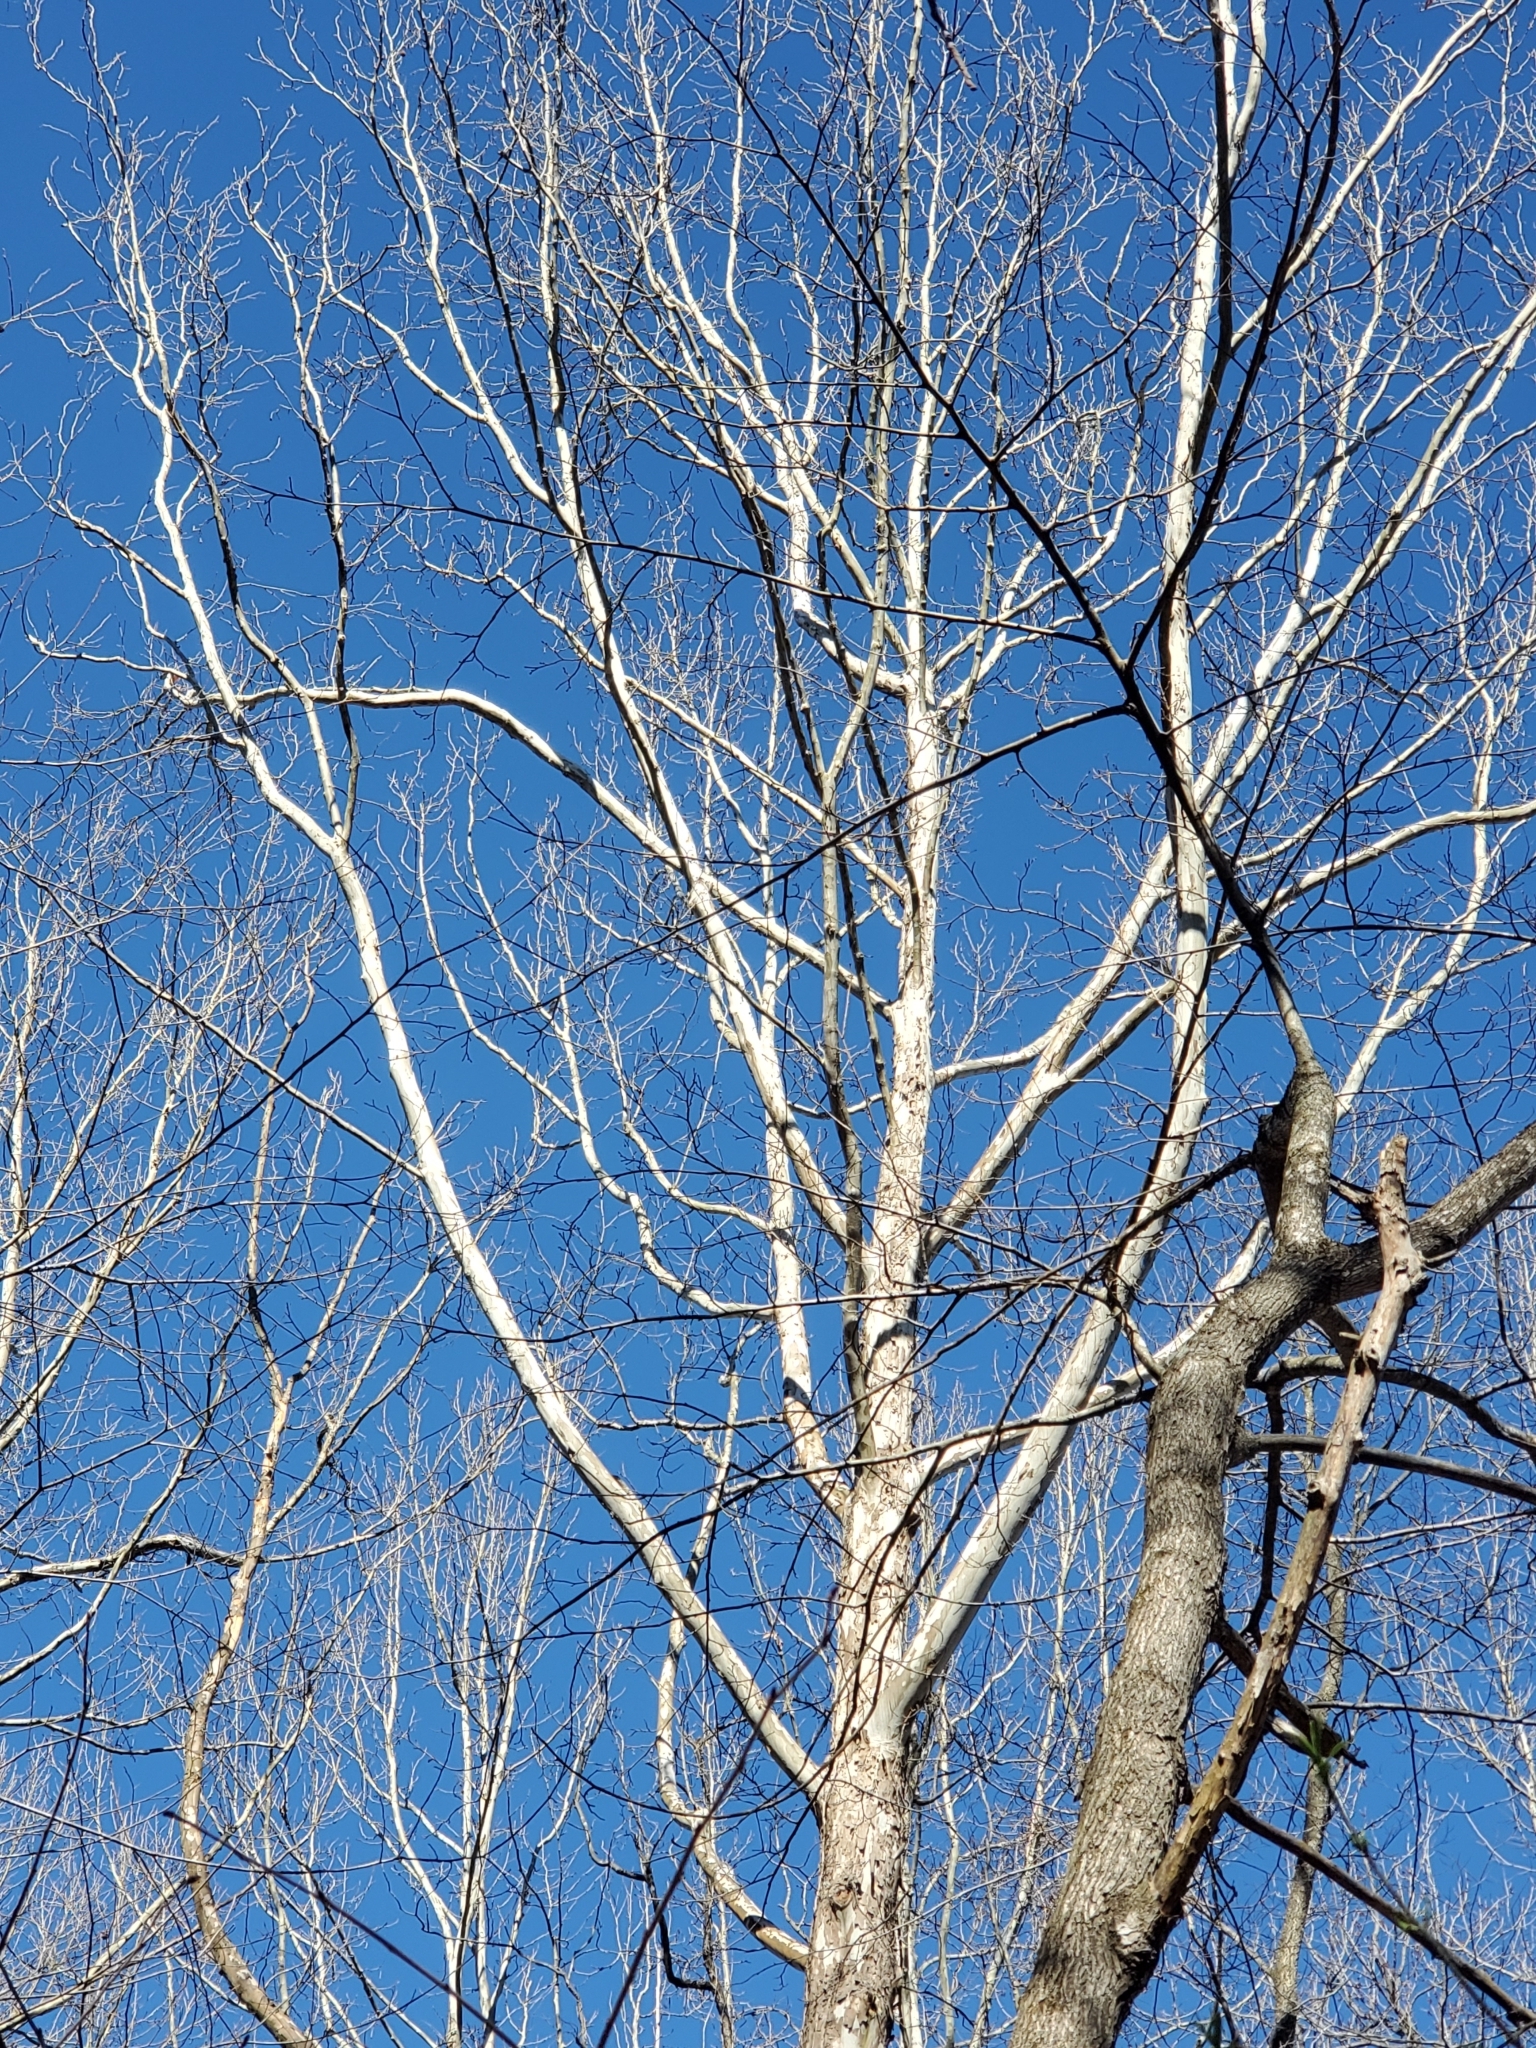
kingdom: Plantae
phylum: Tracheophyta
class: Magnoliopsida
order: Proteales
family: Platanaceae
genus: Platanus
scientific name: Platanus occidentalis
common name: American sycamore
